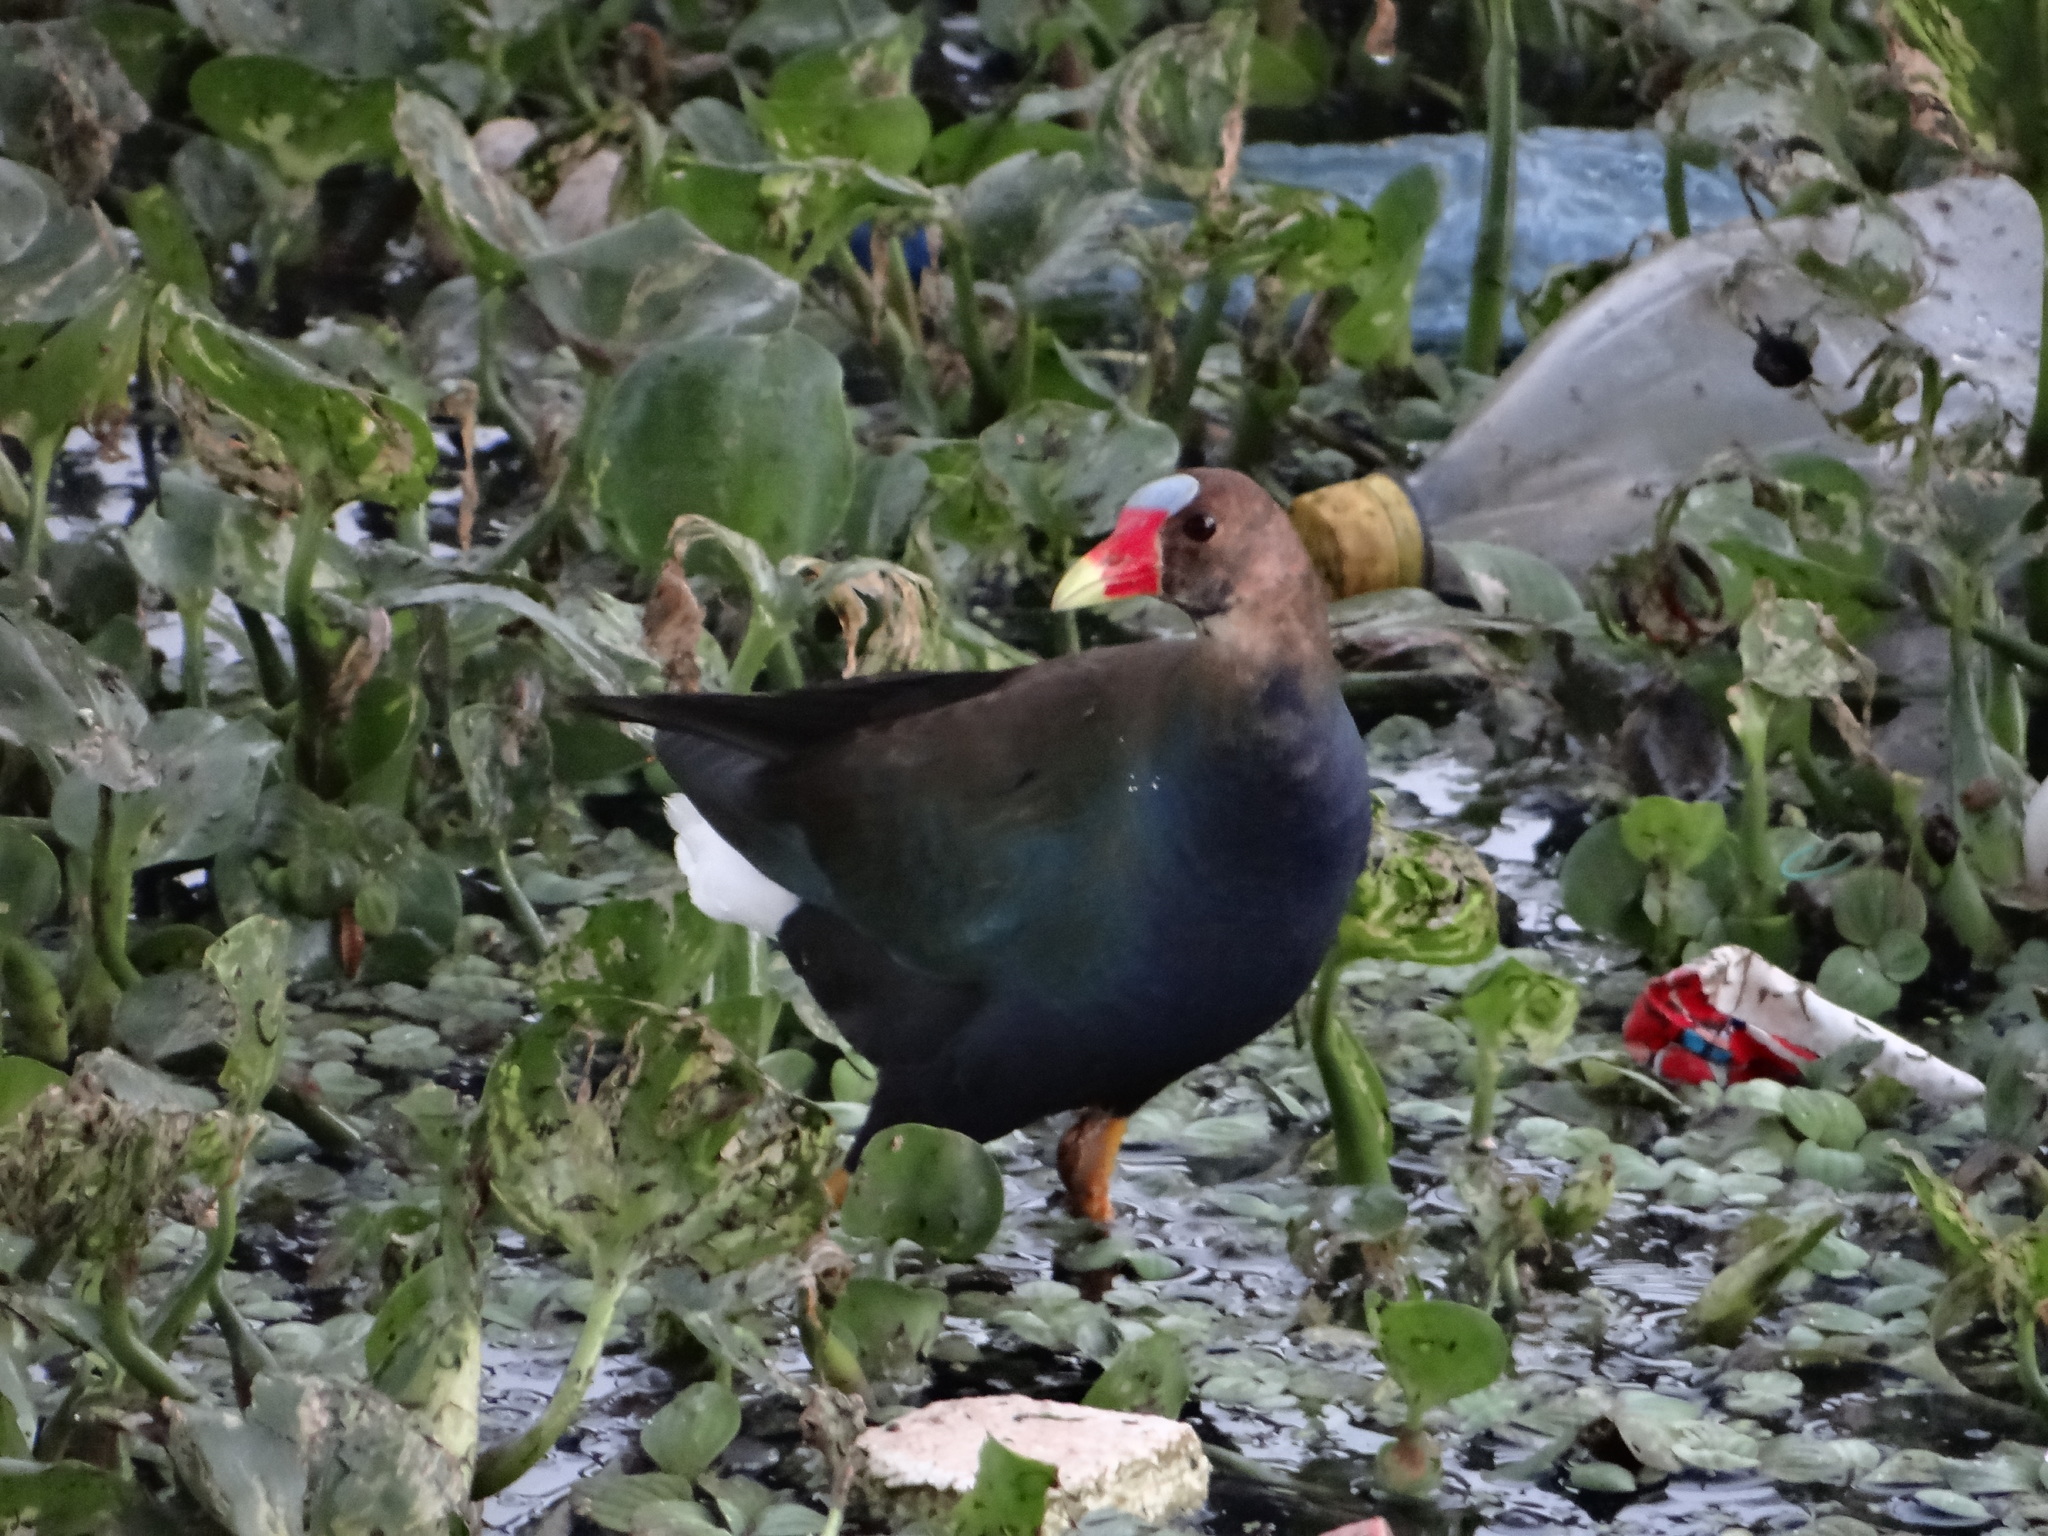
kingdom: Animalia
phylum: Chordata
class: Aves
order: Gruiformes
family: Rallidae
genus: Porphyrio
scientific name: Porphyrio martinica
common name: Purple gallinule
